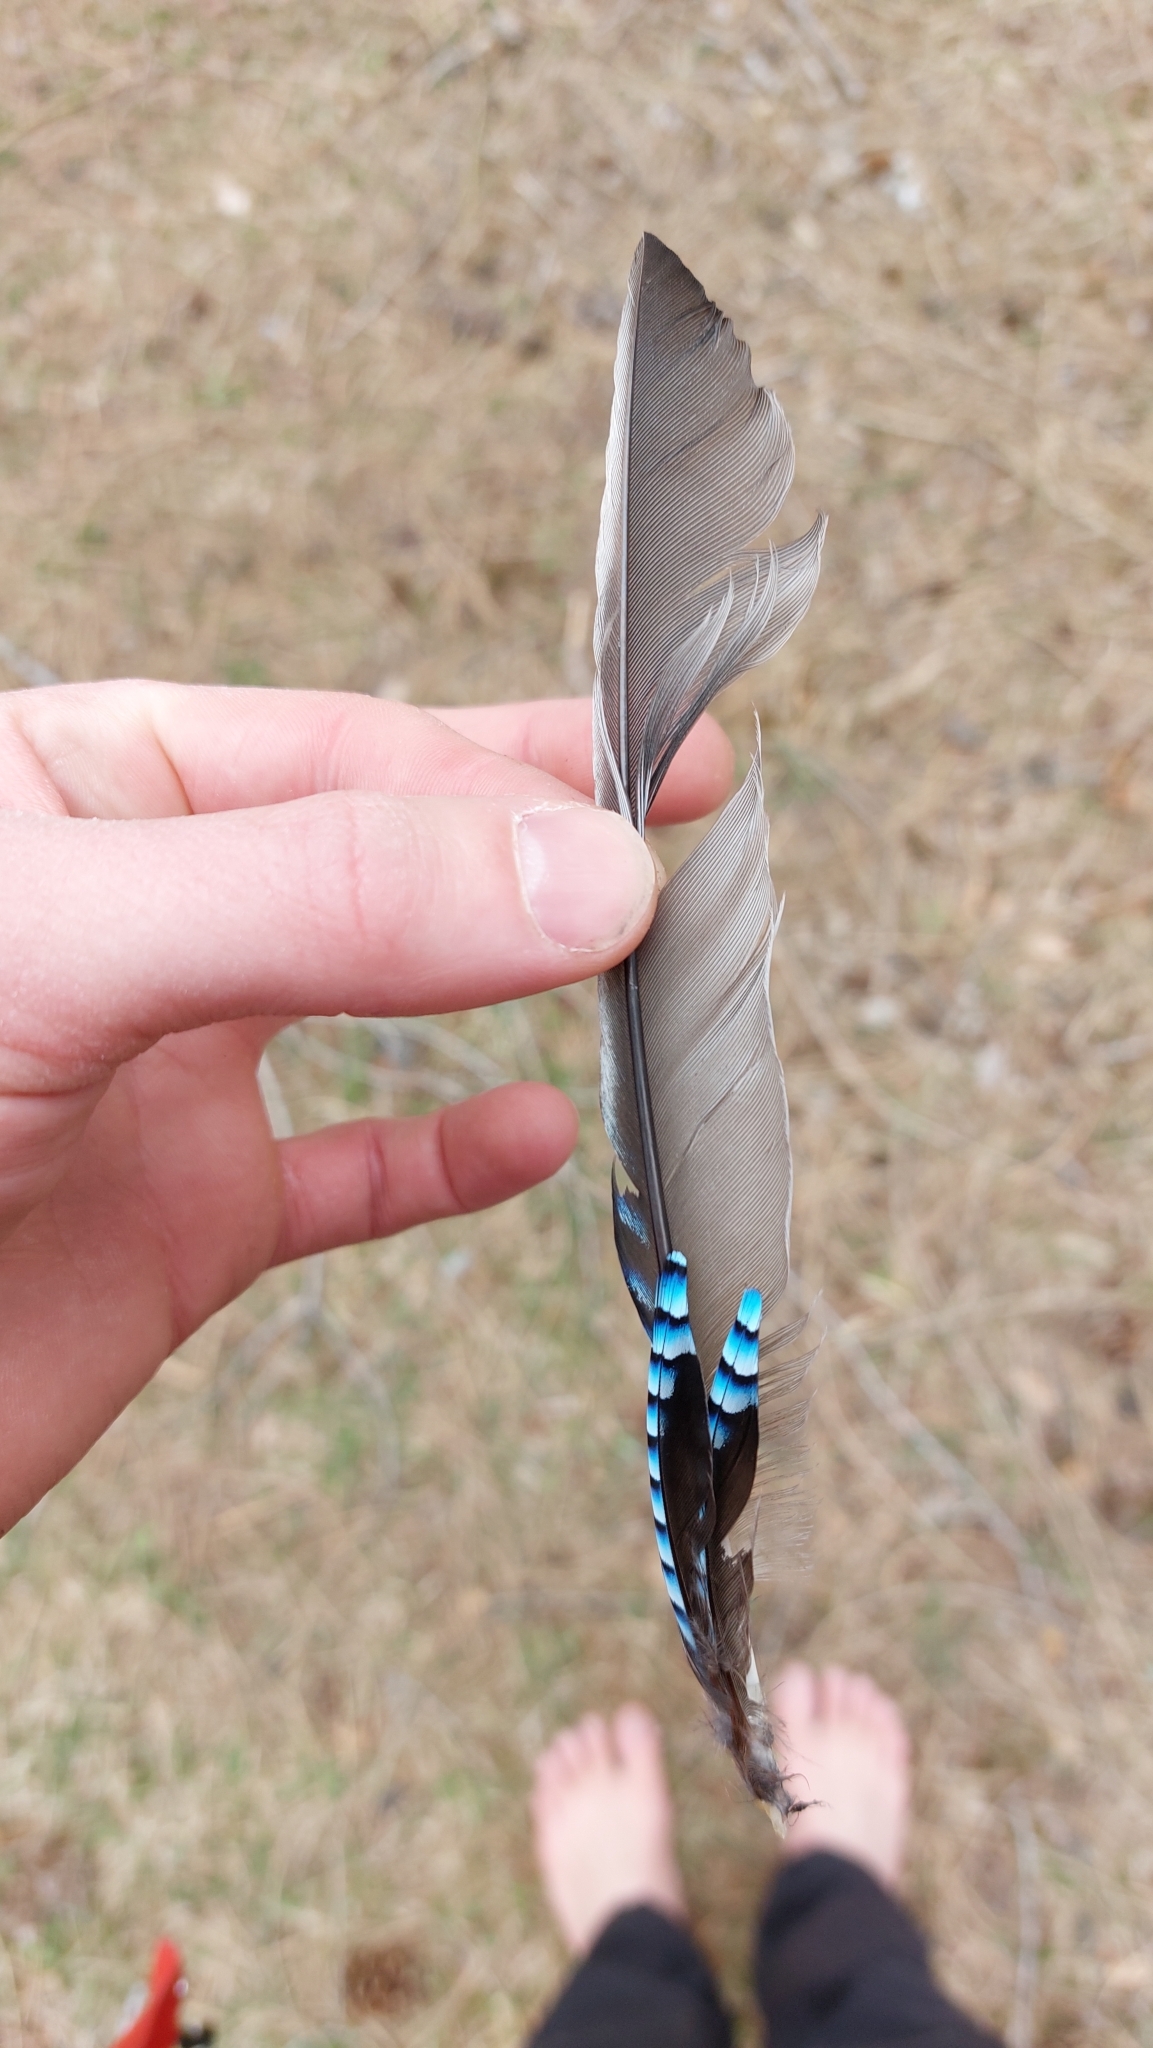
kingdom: Animalia
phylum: Chordata
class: Aves
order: Passeriformes
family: Corvidae
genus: Garrulus
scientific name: Garrulus glandarius
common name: Eurasian jay
